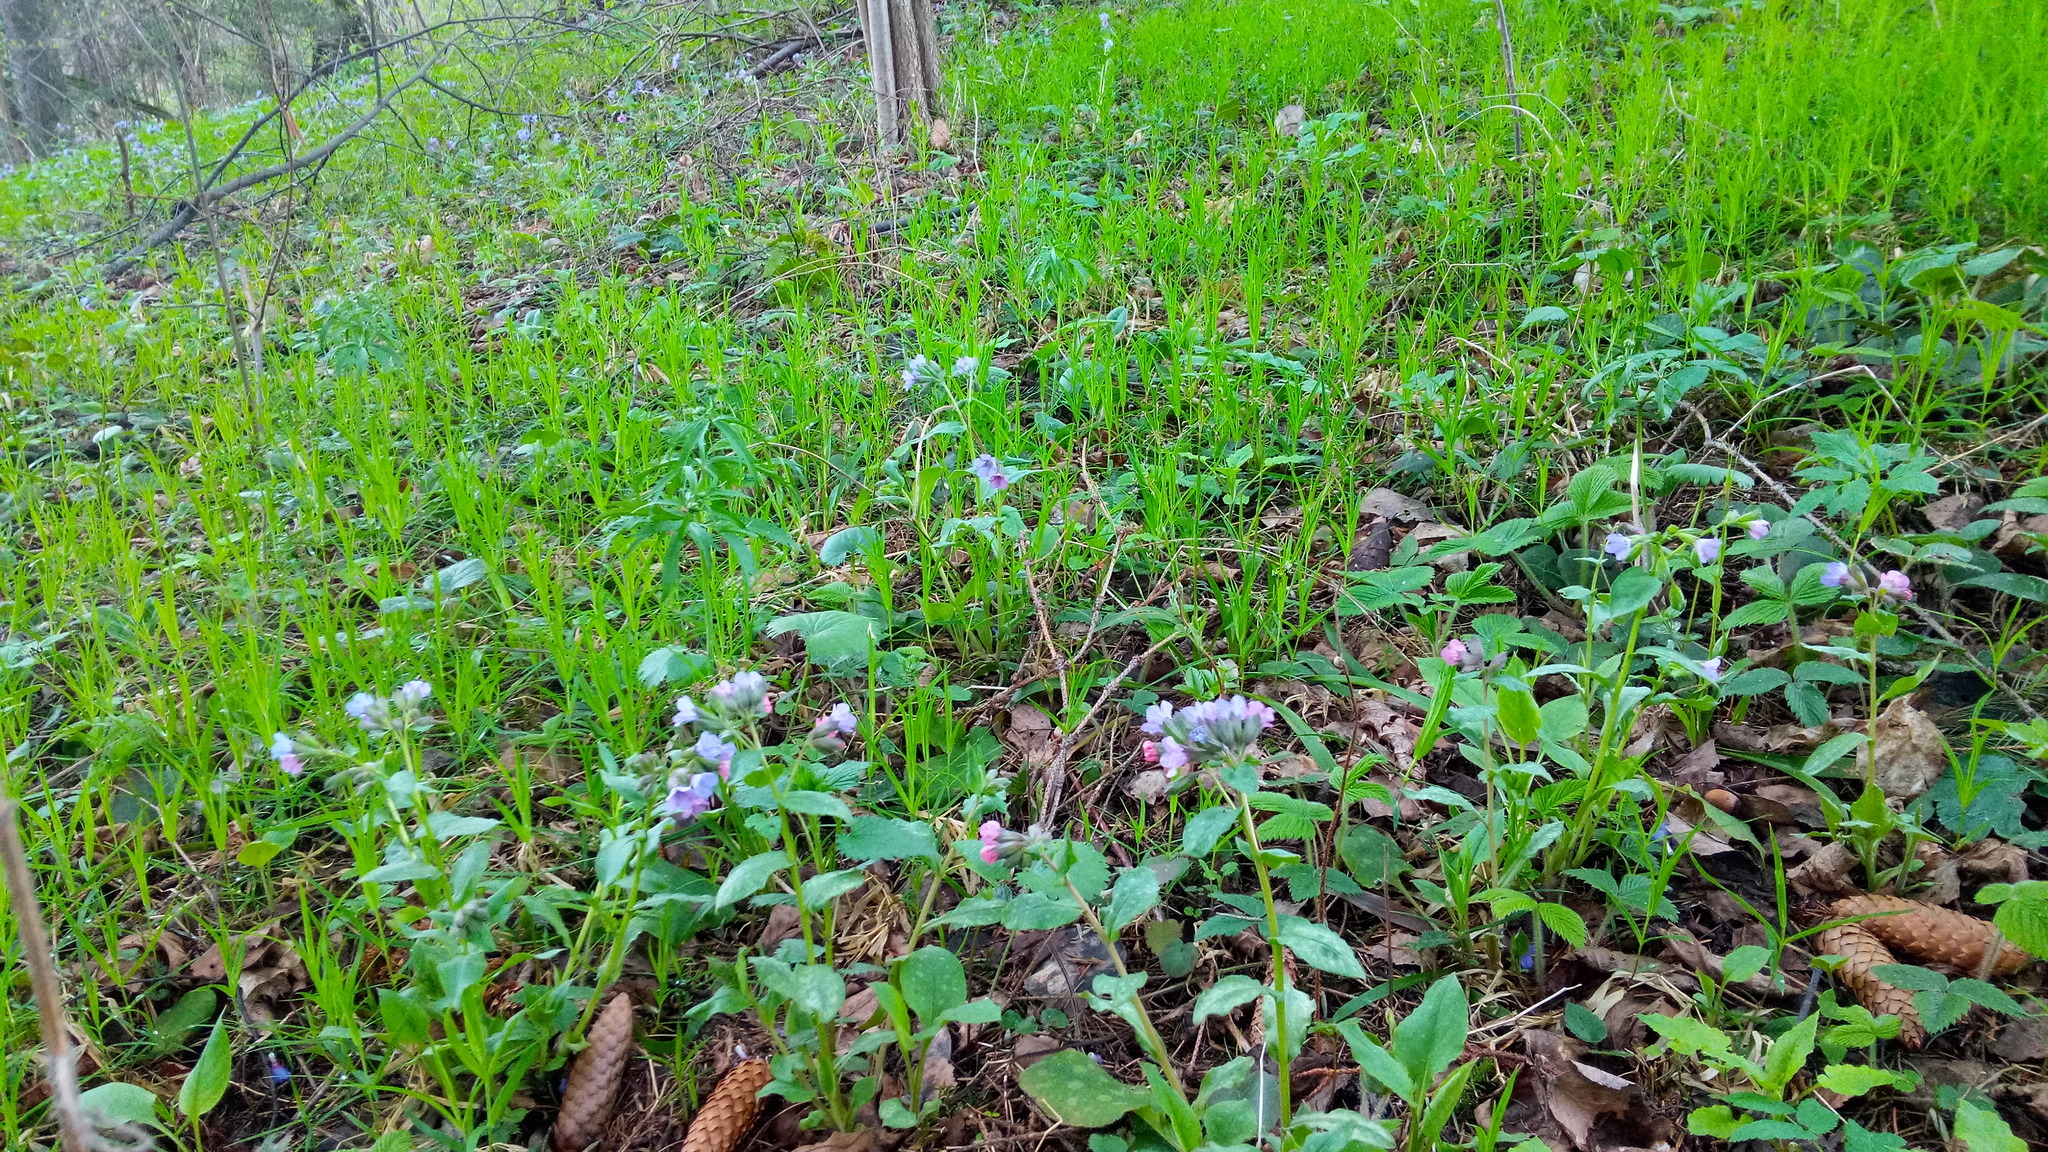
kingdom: Plantae
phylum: Tracheophyta
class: Magnoliopsida
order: Boraginales
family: Boraginaceae
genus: Pulmonaria
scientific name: Pulmonaria obscura
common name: Suffolk lungwort
